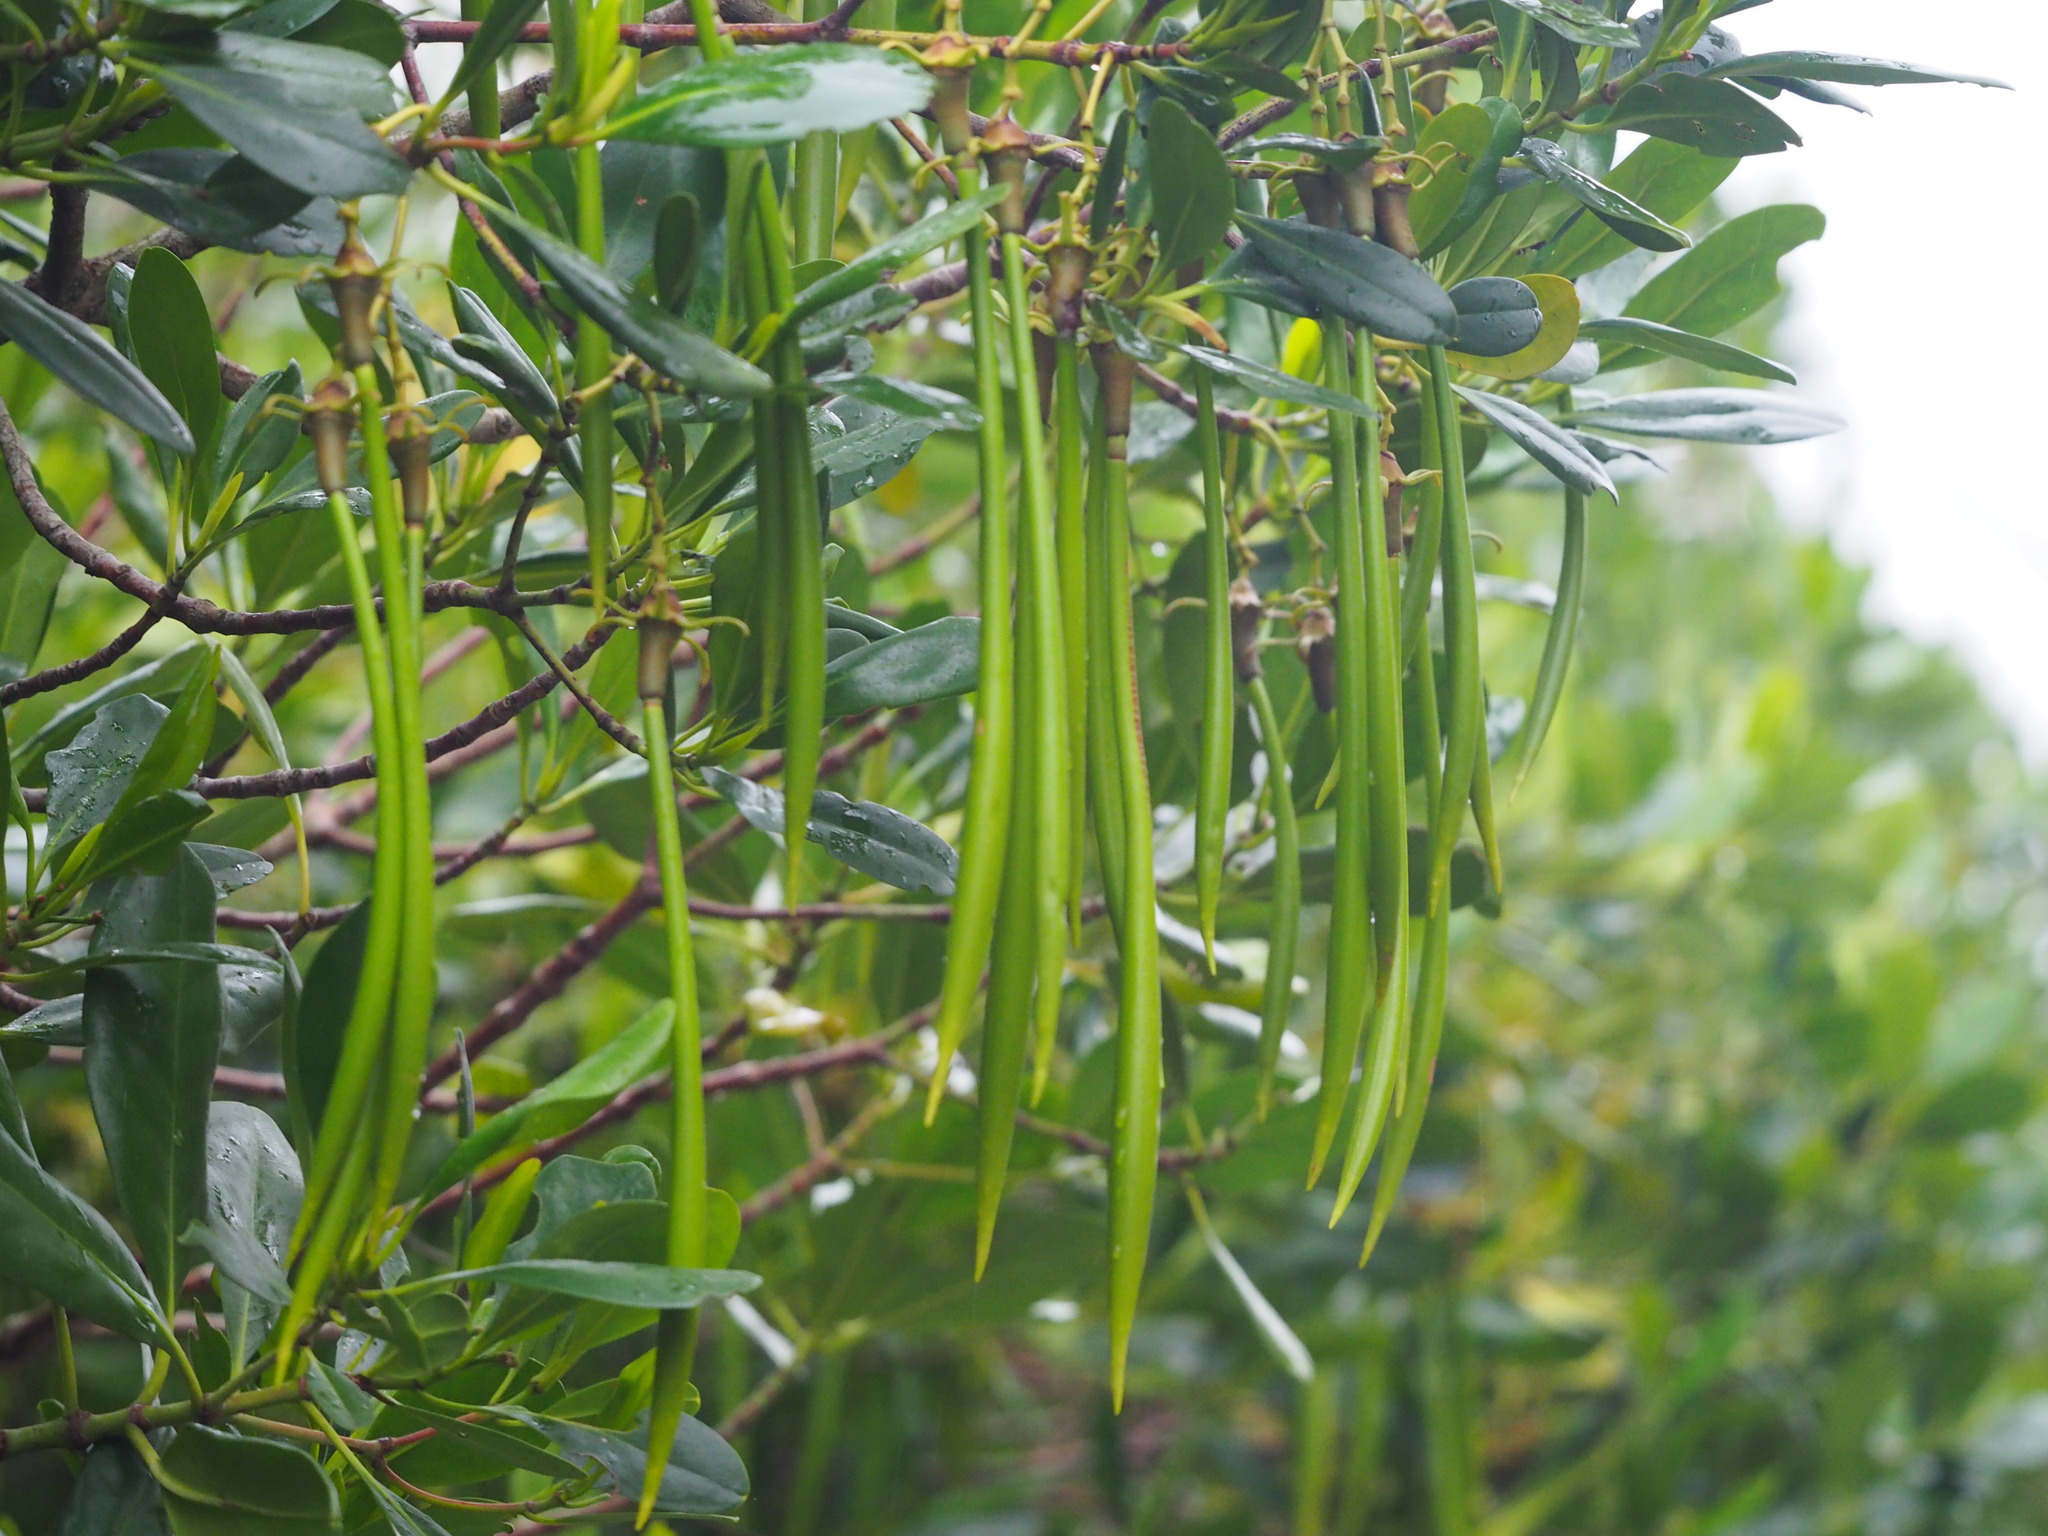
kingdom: Plantae
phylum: Tracheophyta
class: Magnoliopsida
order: Malpighiales
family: Rhizophoraceae
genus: Kandelia
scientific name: Kandelia obovata
